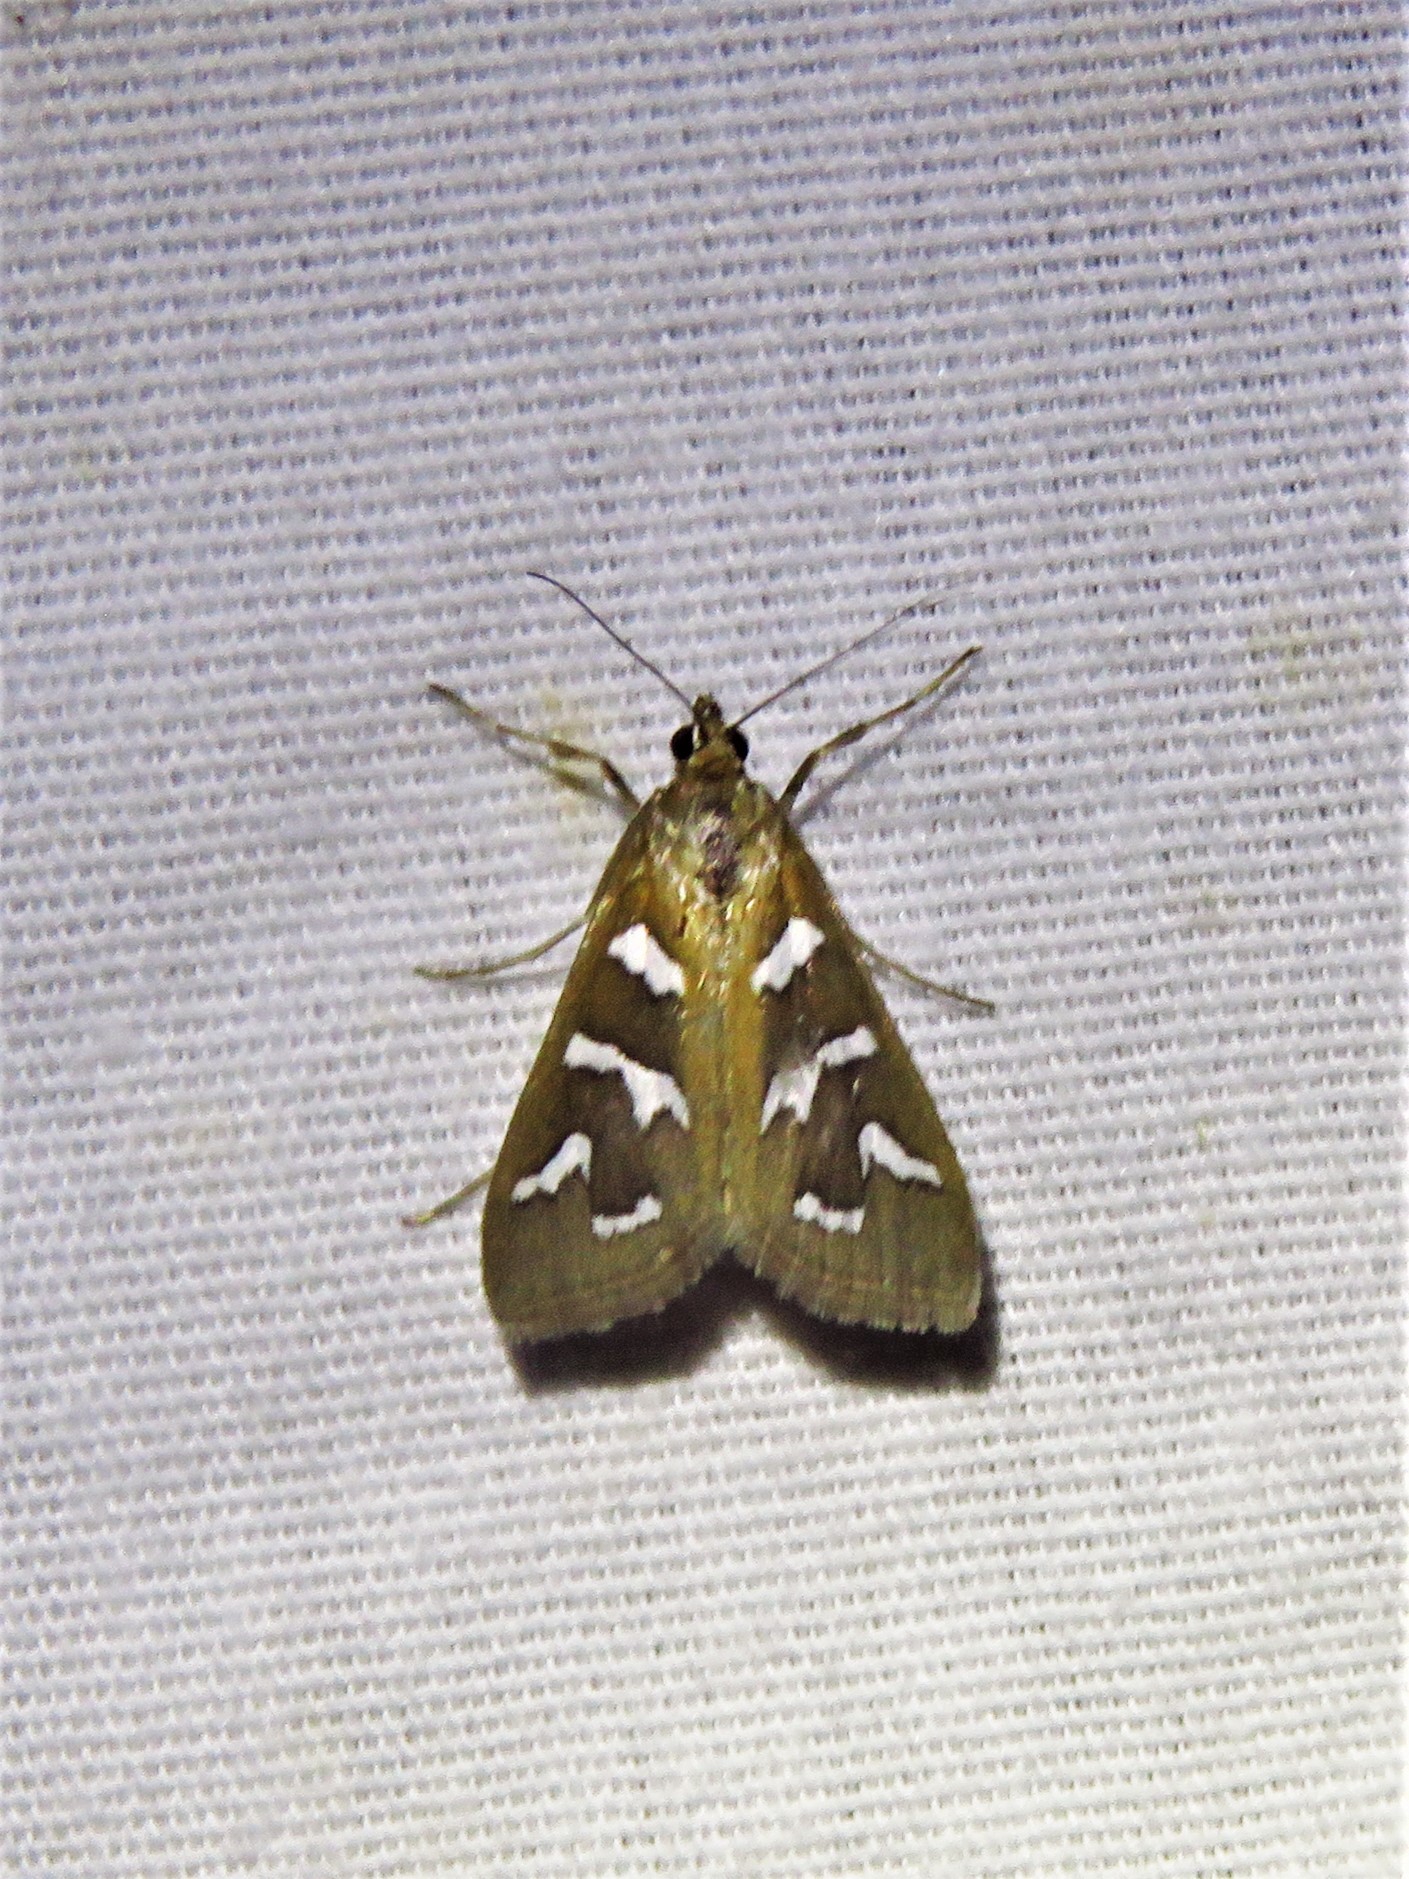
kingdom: Animalia
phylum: Arthropoda
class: Insecta
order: Lepidoptera
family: Crambidae
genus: Diastictis
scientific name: Diastictis fracturalis
